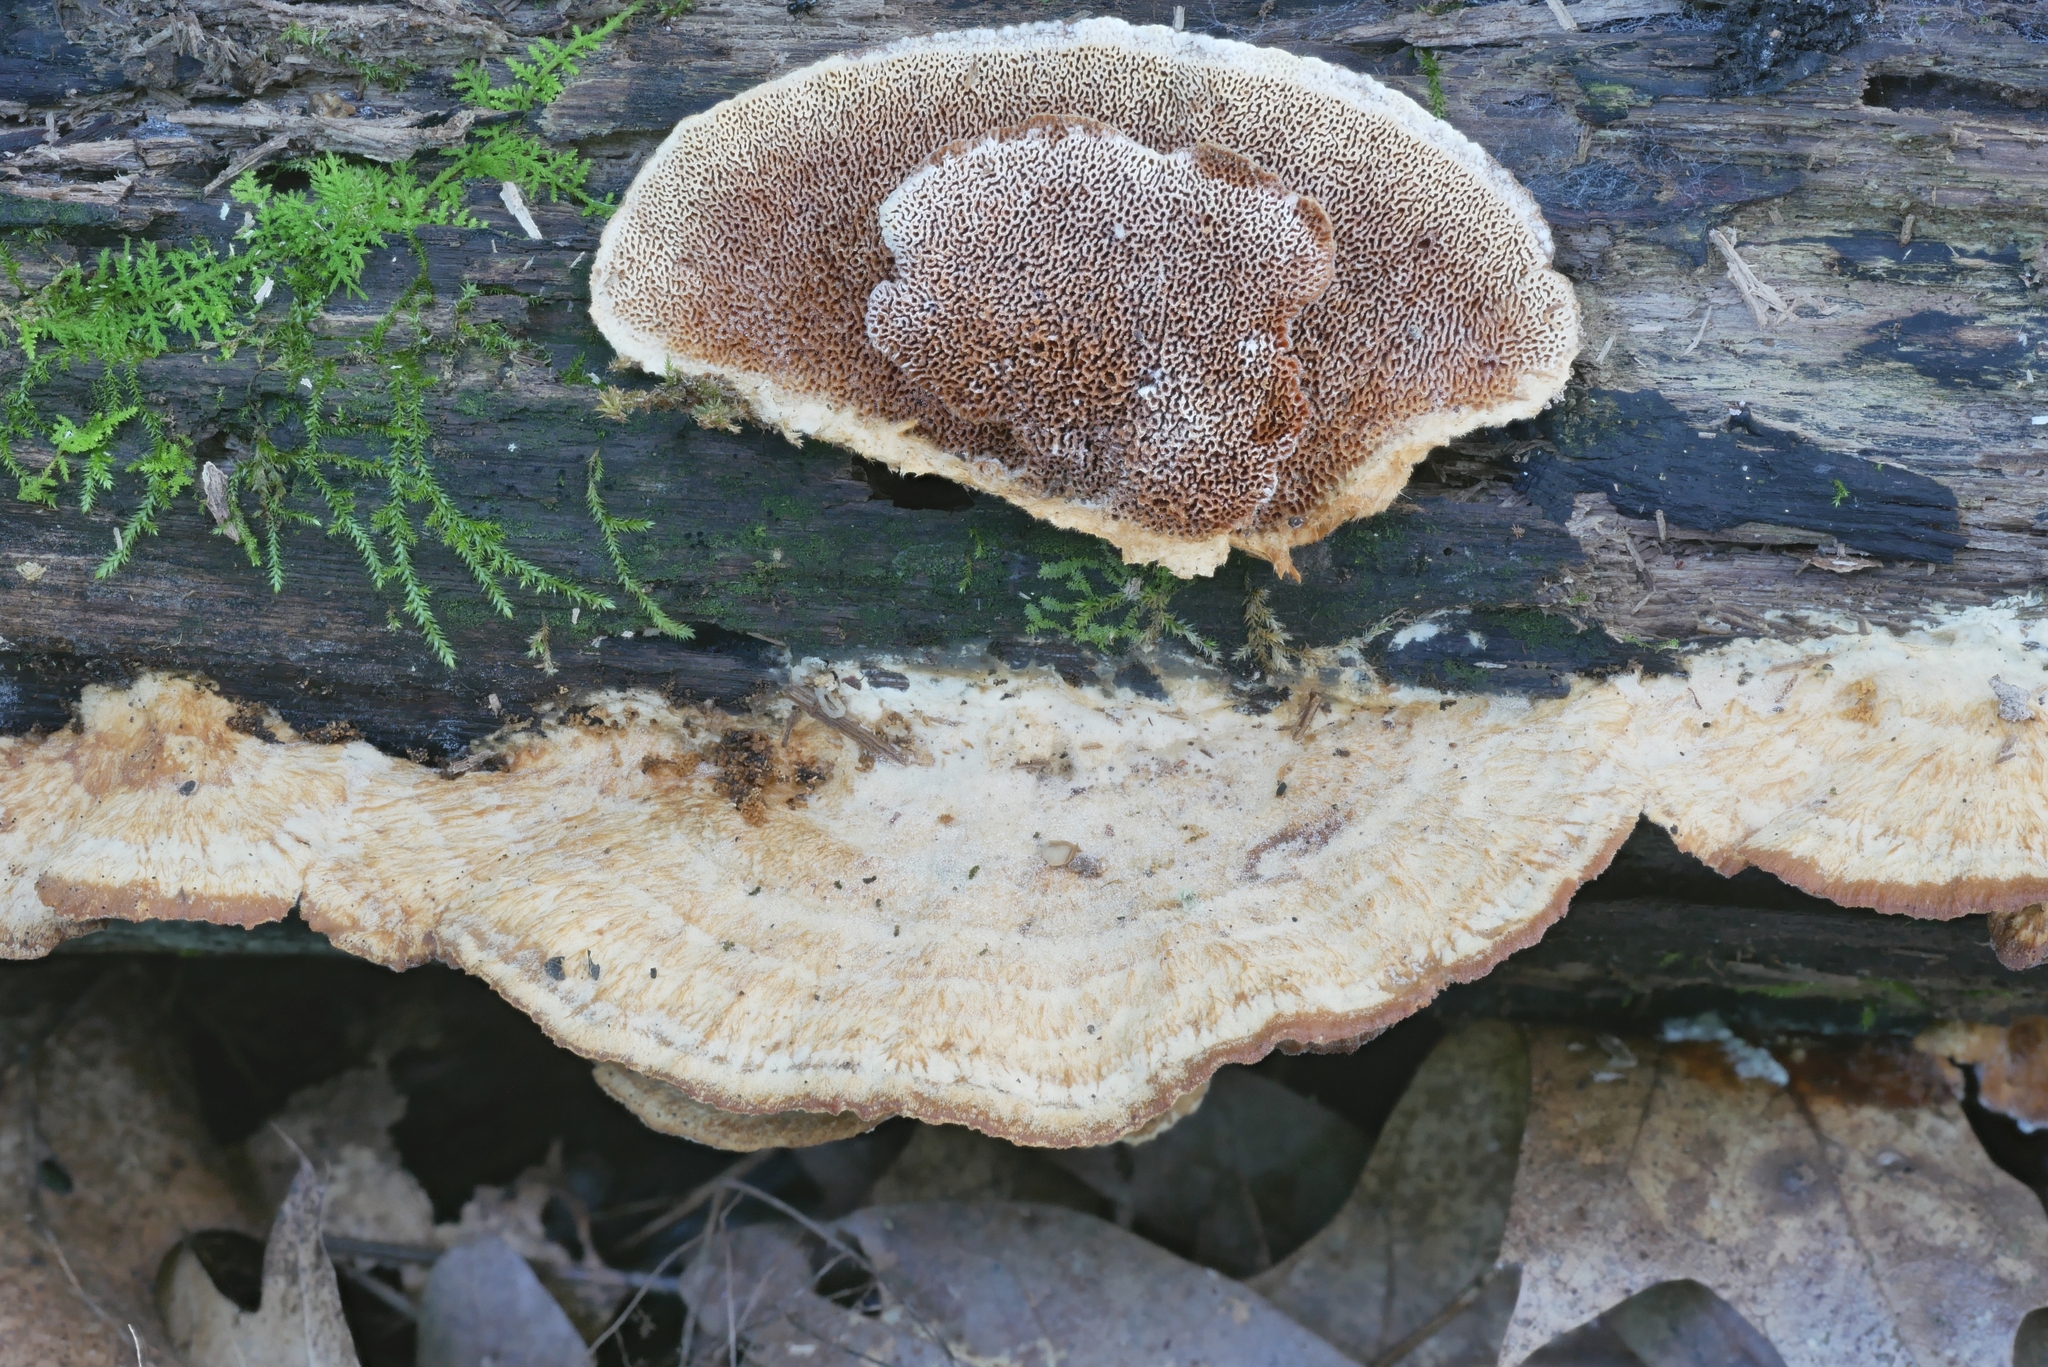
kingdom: Fungi
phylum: Basidiomycota
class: Agaricomycetes
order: Polyporales
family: Irpicaceae
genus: Trametopsis
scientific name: Trametopsis cervina
